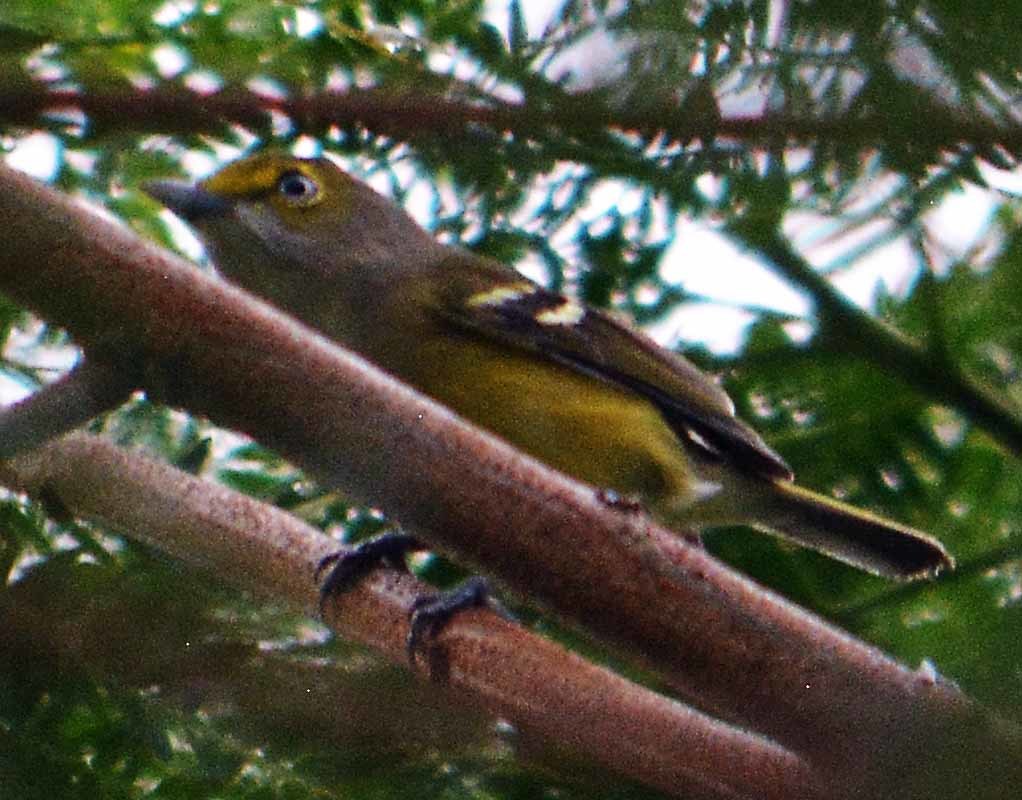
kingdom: Animalia
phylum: Chordata
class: Aves
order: Passeriformes
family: Vireonidae
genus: Vireo
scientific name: Vireo griseus
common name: White-eyed vireo
